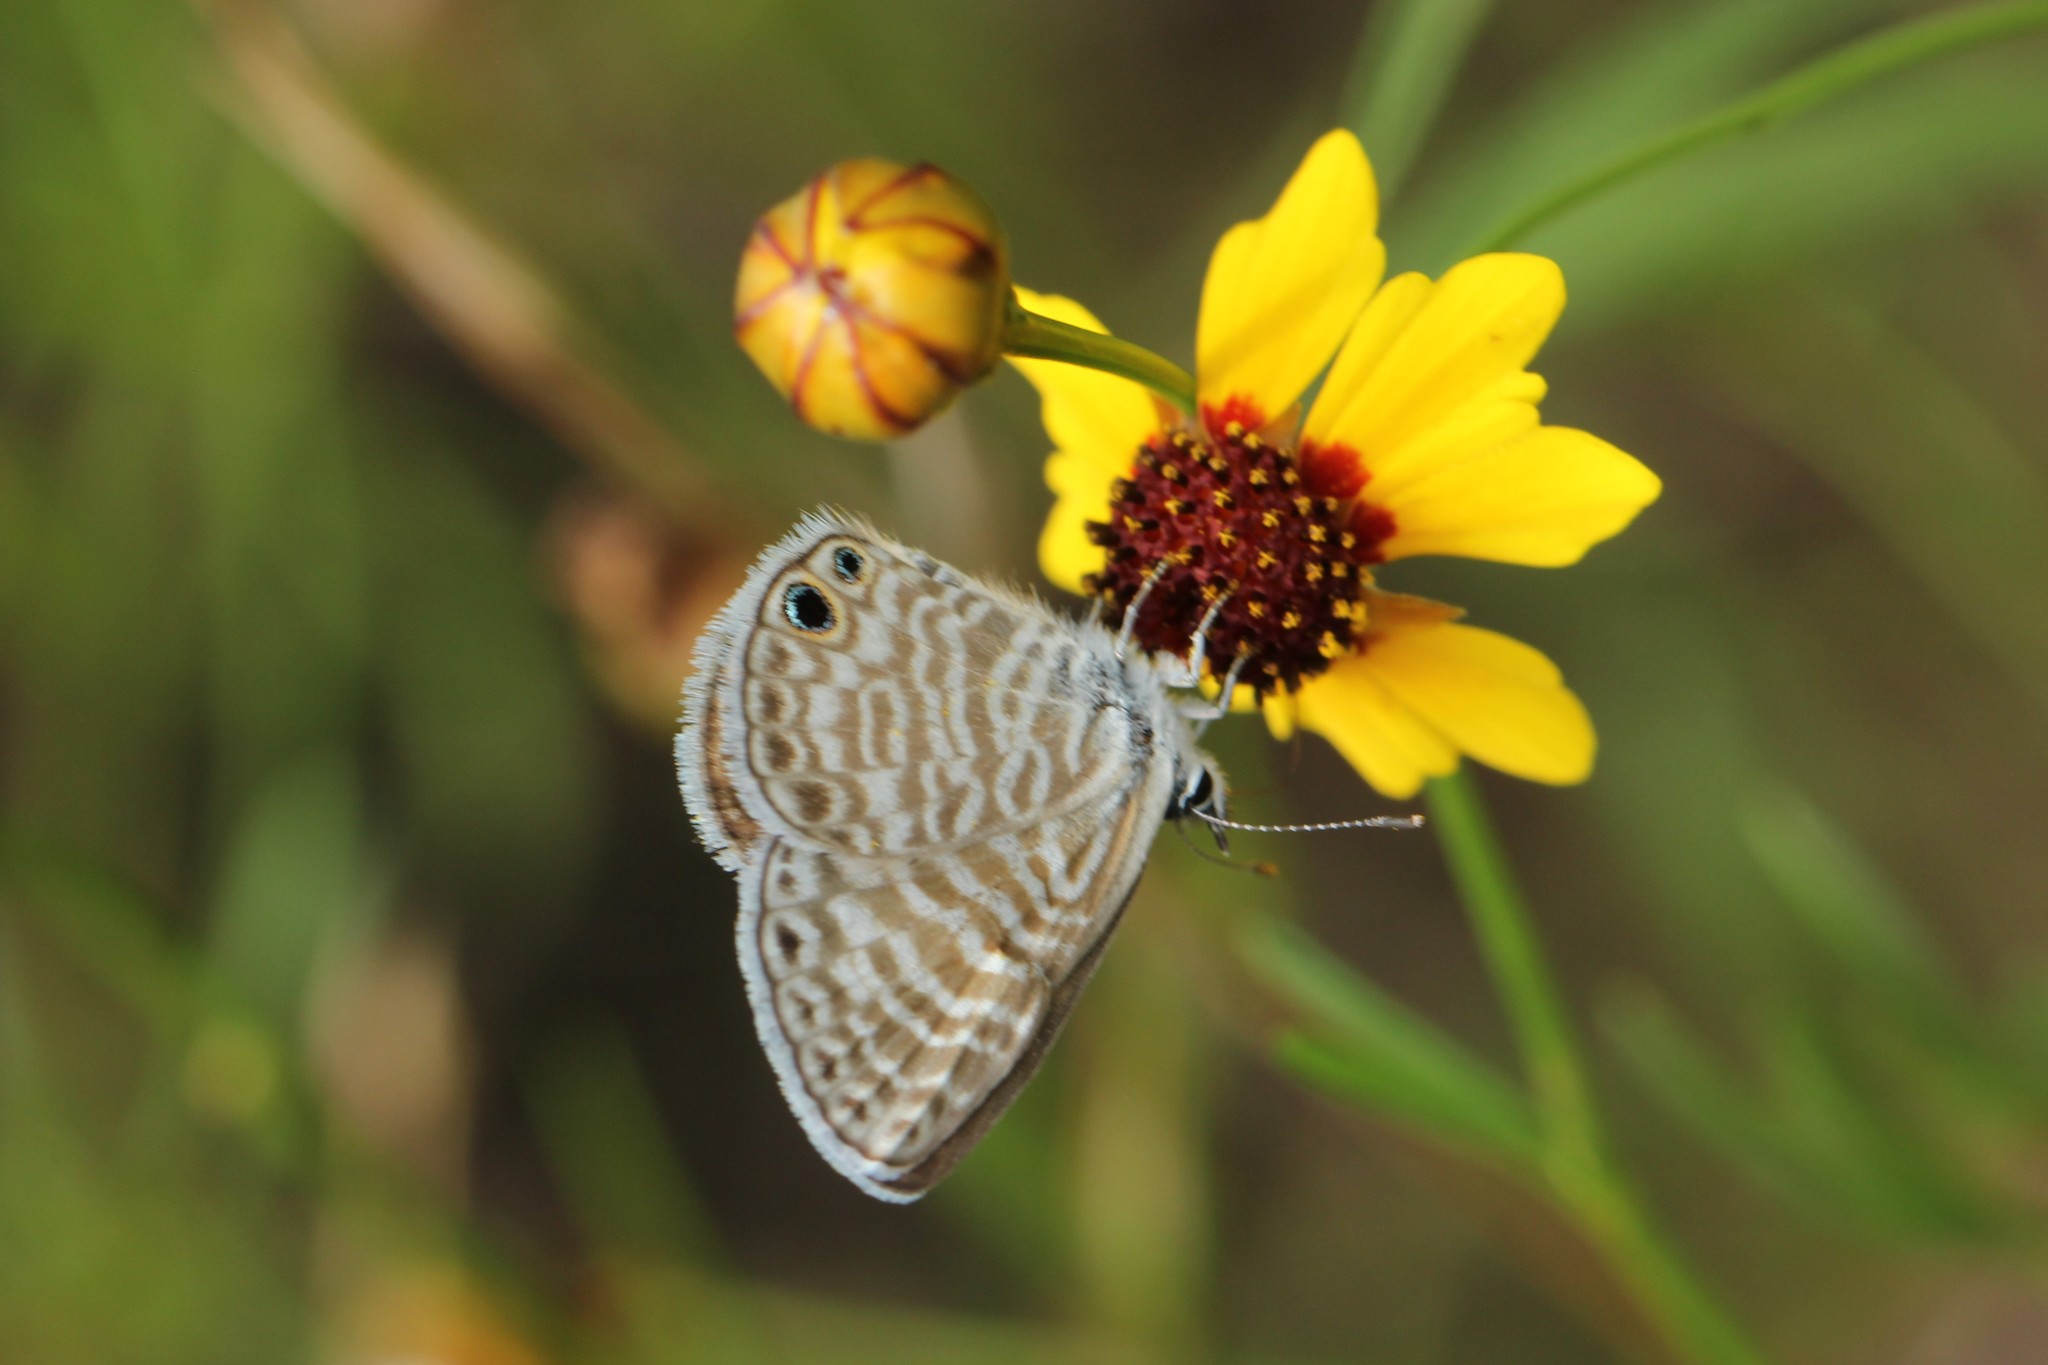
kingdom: Animalia
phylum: Arthropoda
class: Insecta
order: Lepidoptera
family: Lycaenidae
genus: Leptotes
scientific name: Leptotes marina
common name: Marine blue
